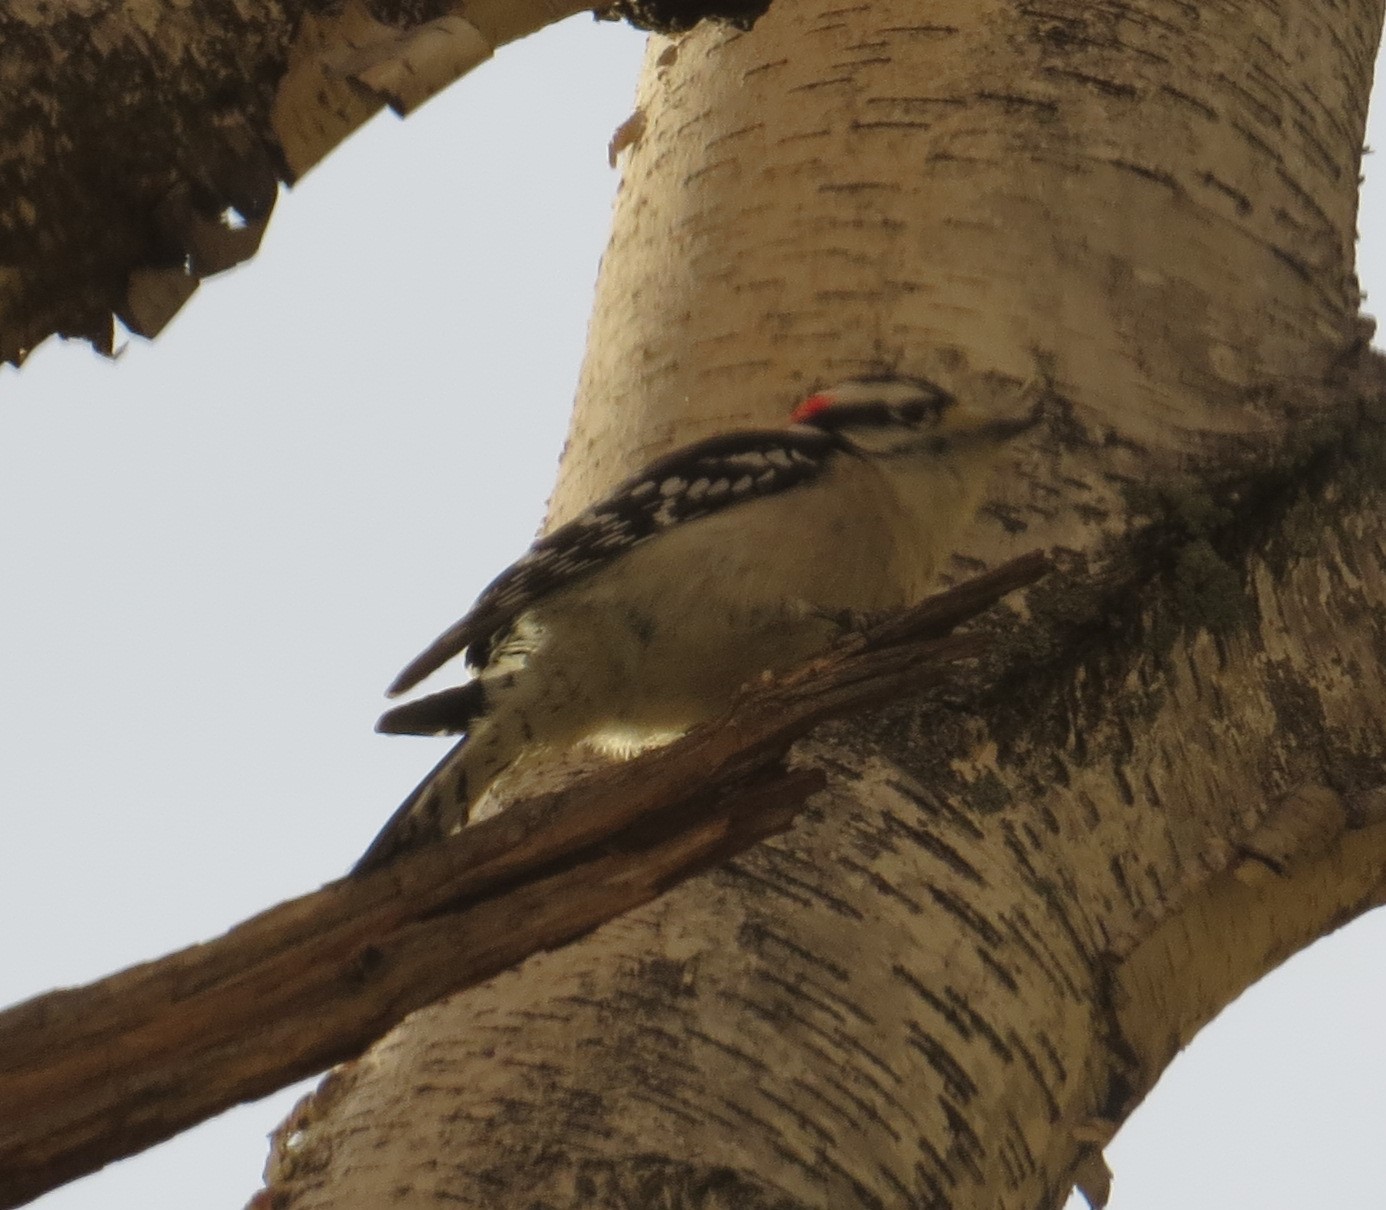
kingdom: Animalia
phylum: Chordata
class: Aves
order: Piciformes
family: Picidae
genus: Dryobates
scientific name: Dryobates pubescens
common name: Downy woodpecker
